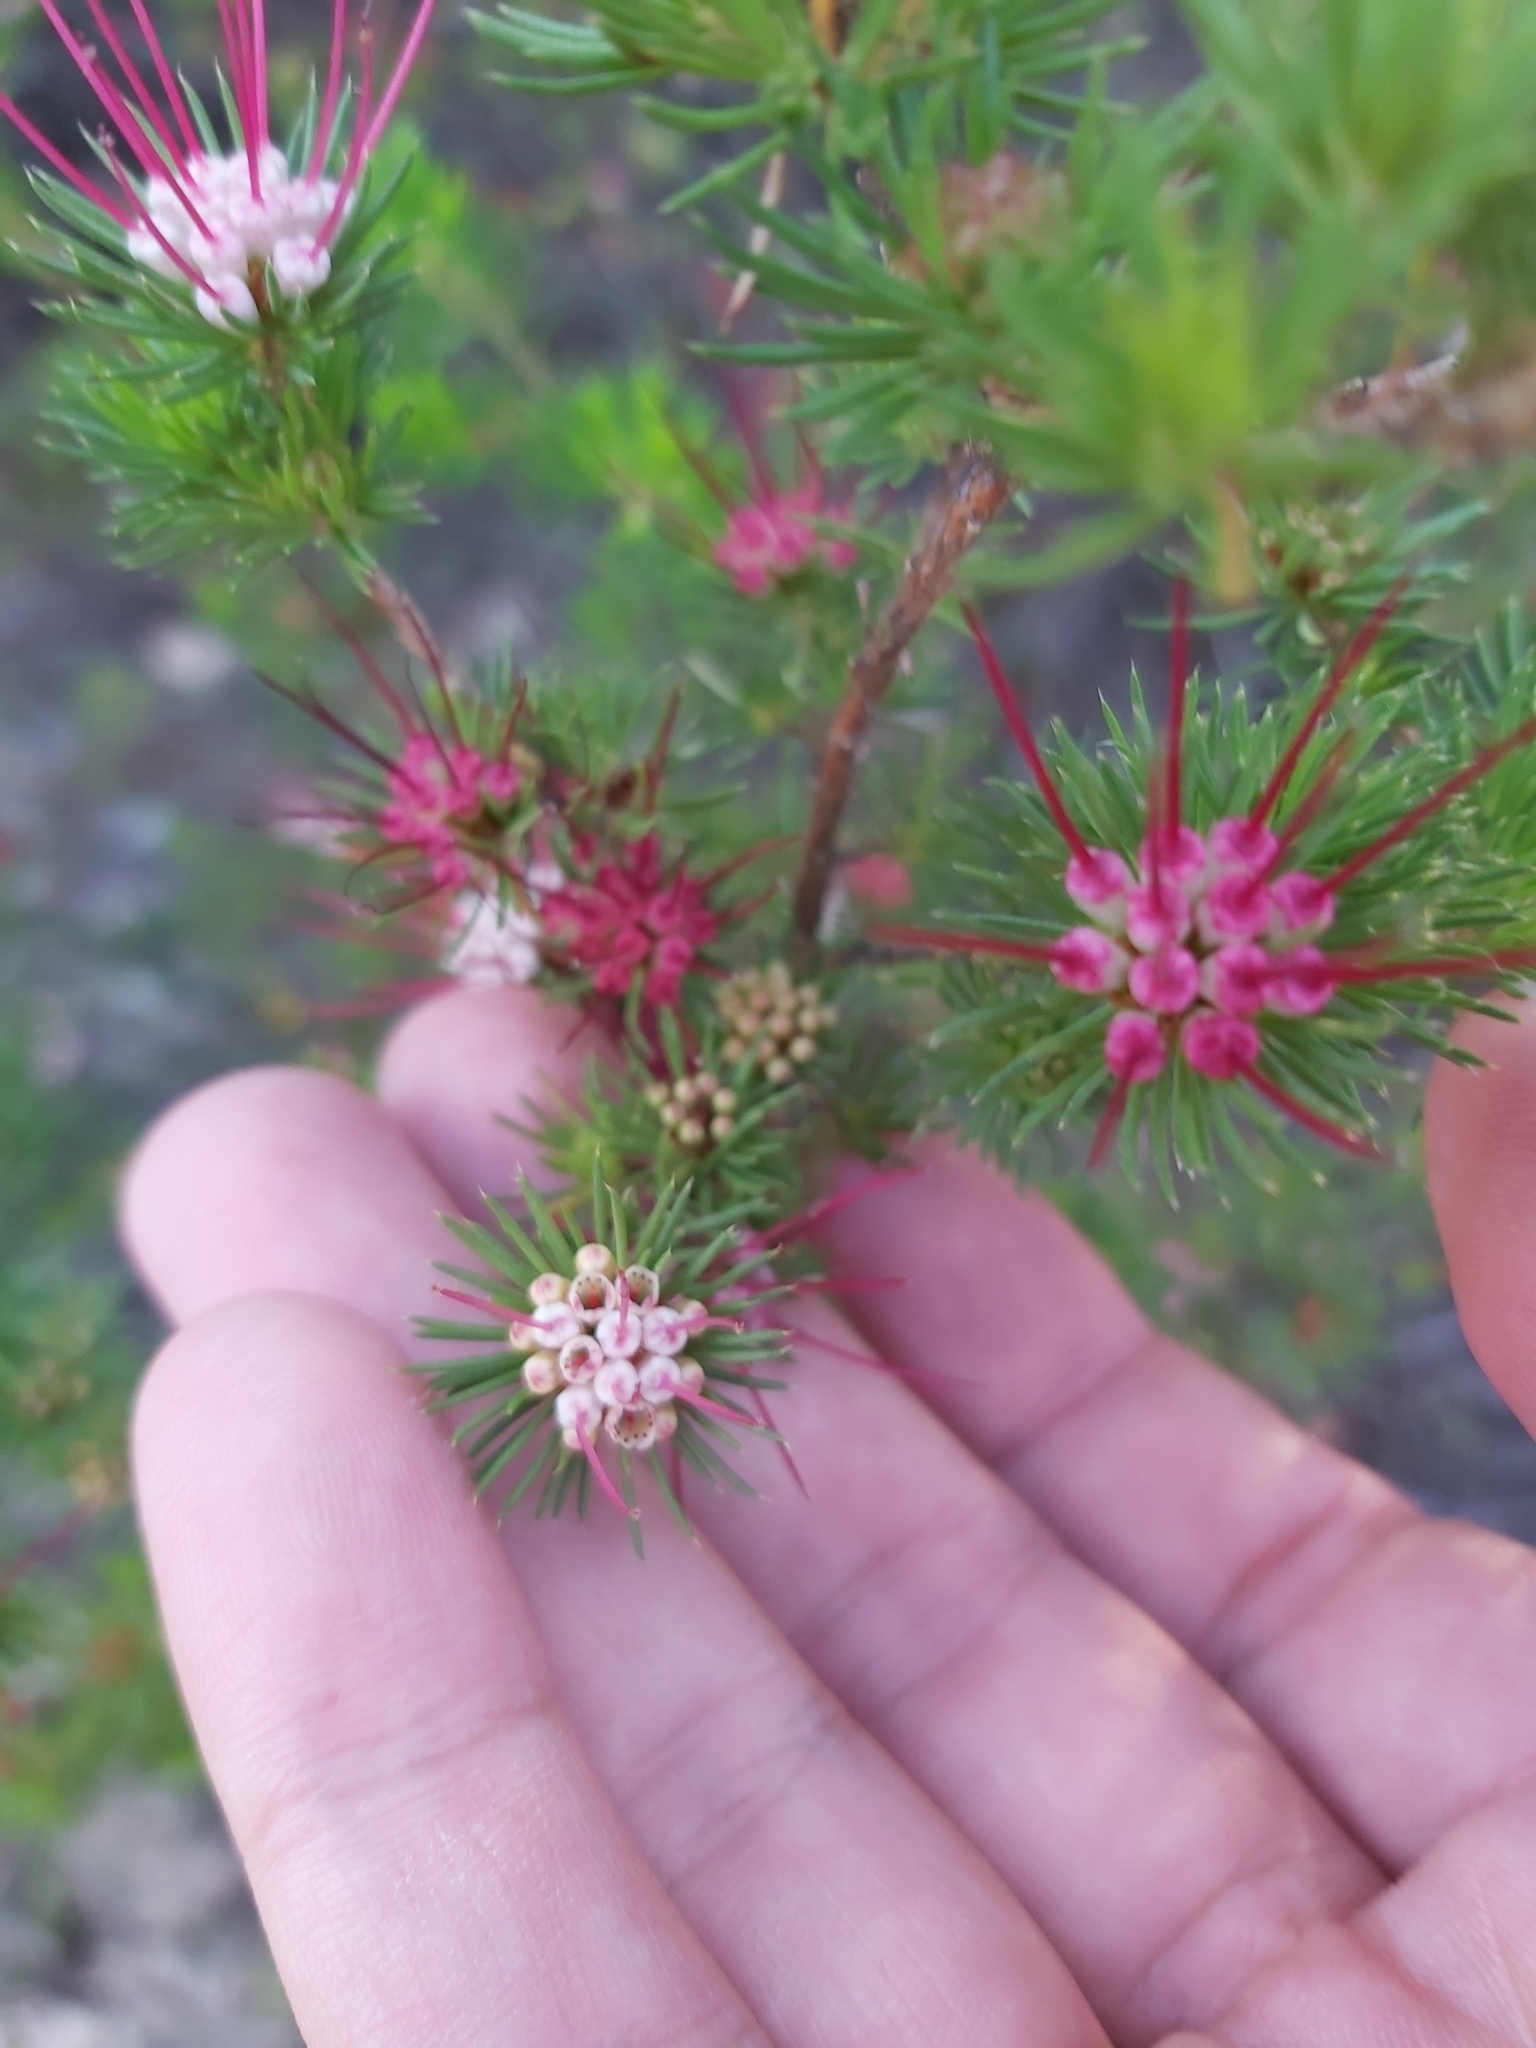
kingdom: Plantae
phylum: Tracheophyta
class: Magnoliopsida
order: Myrtales
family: Myrtaceae
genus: Darwinia
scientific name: Darwinia fascicularis
